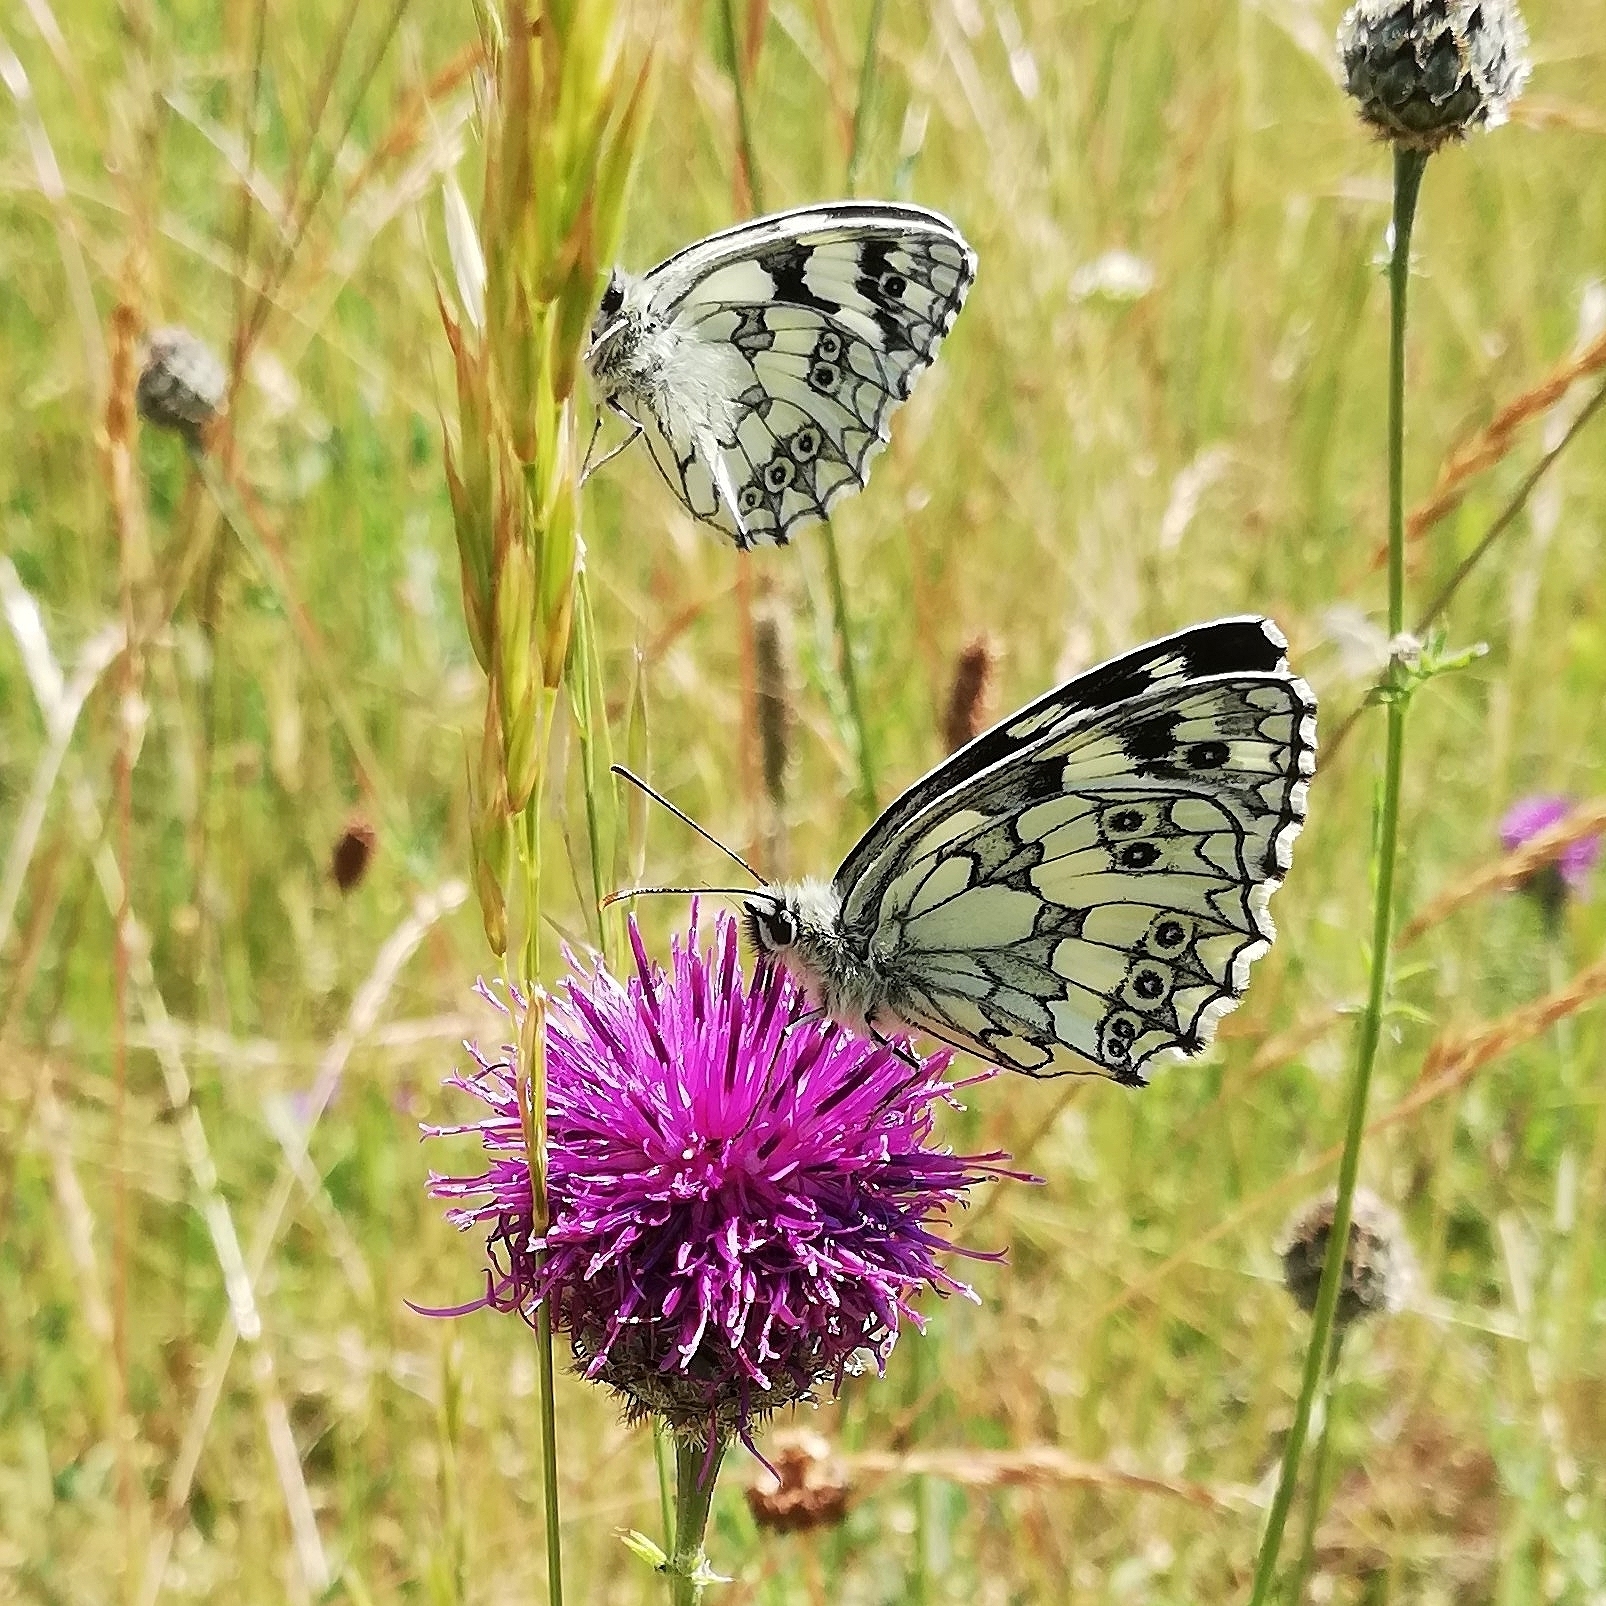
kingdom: Animalia
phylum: Arthropoda
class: Insecta
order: Lepidoptera
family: Nymphalidae
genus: Melanargia
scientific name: Melanargia galathea
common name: Marbled white
